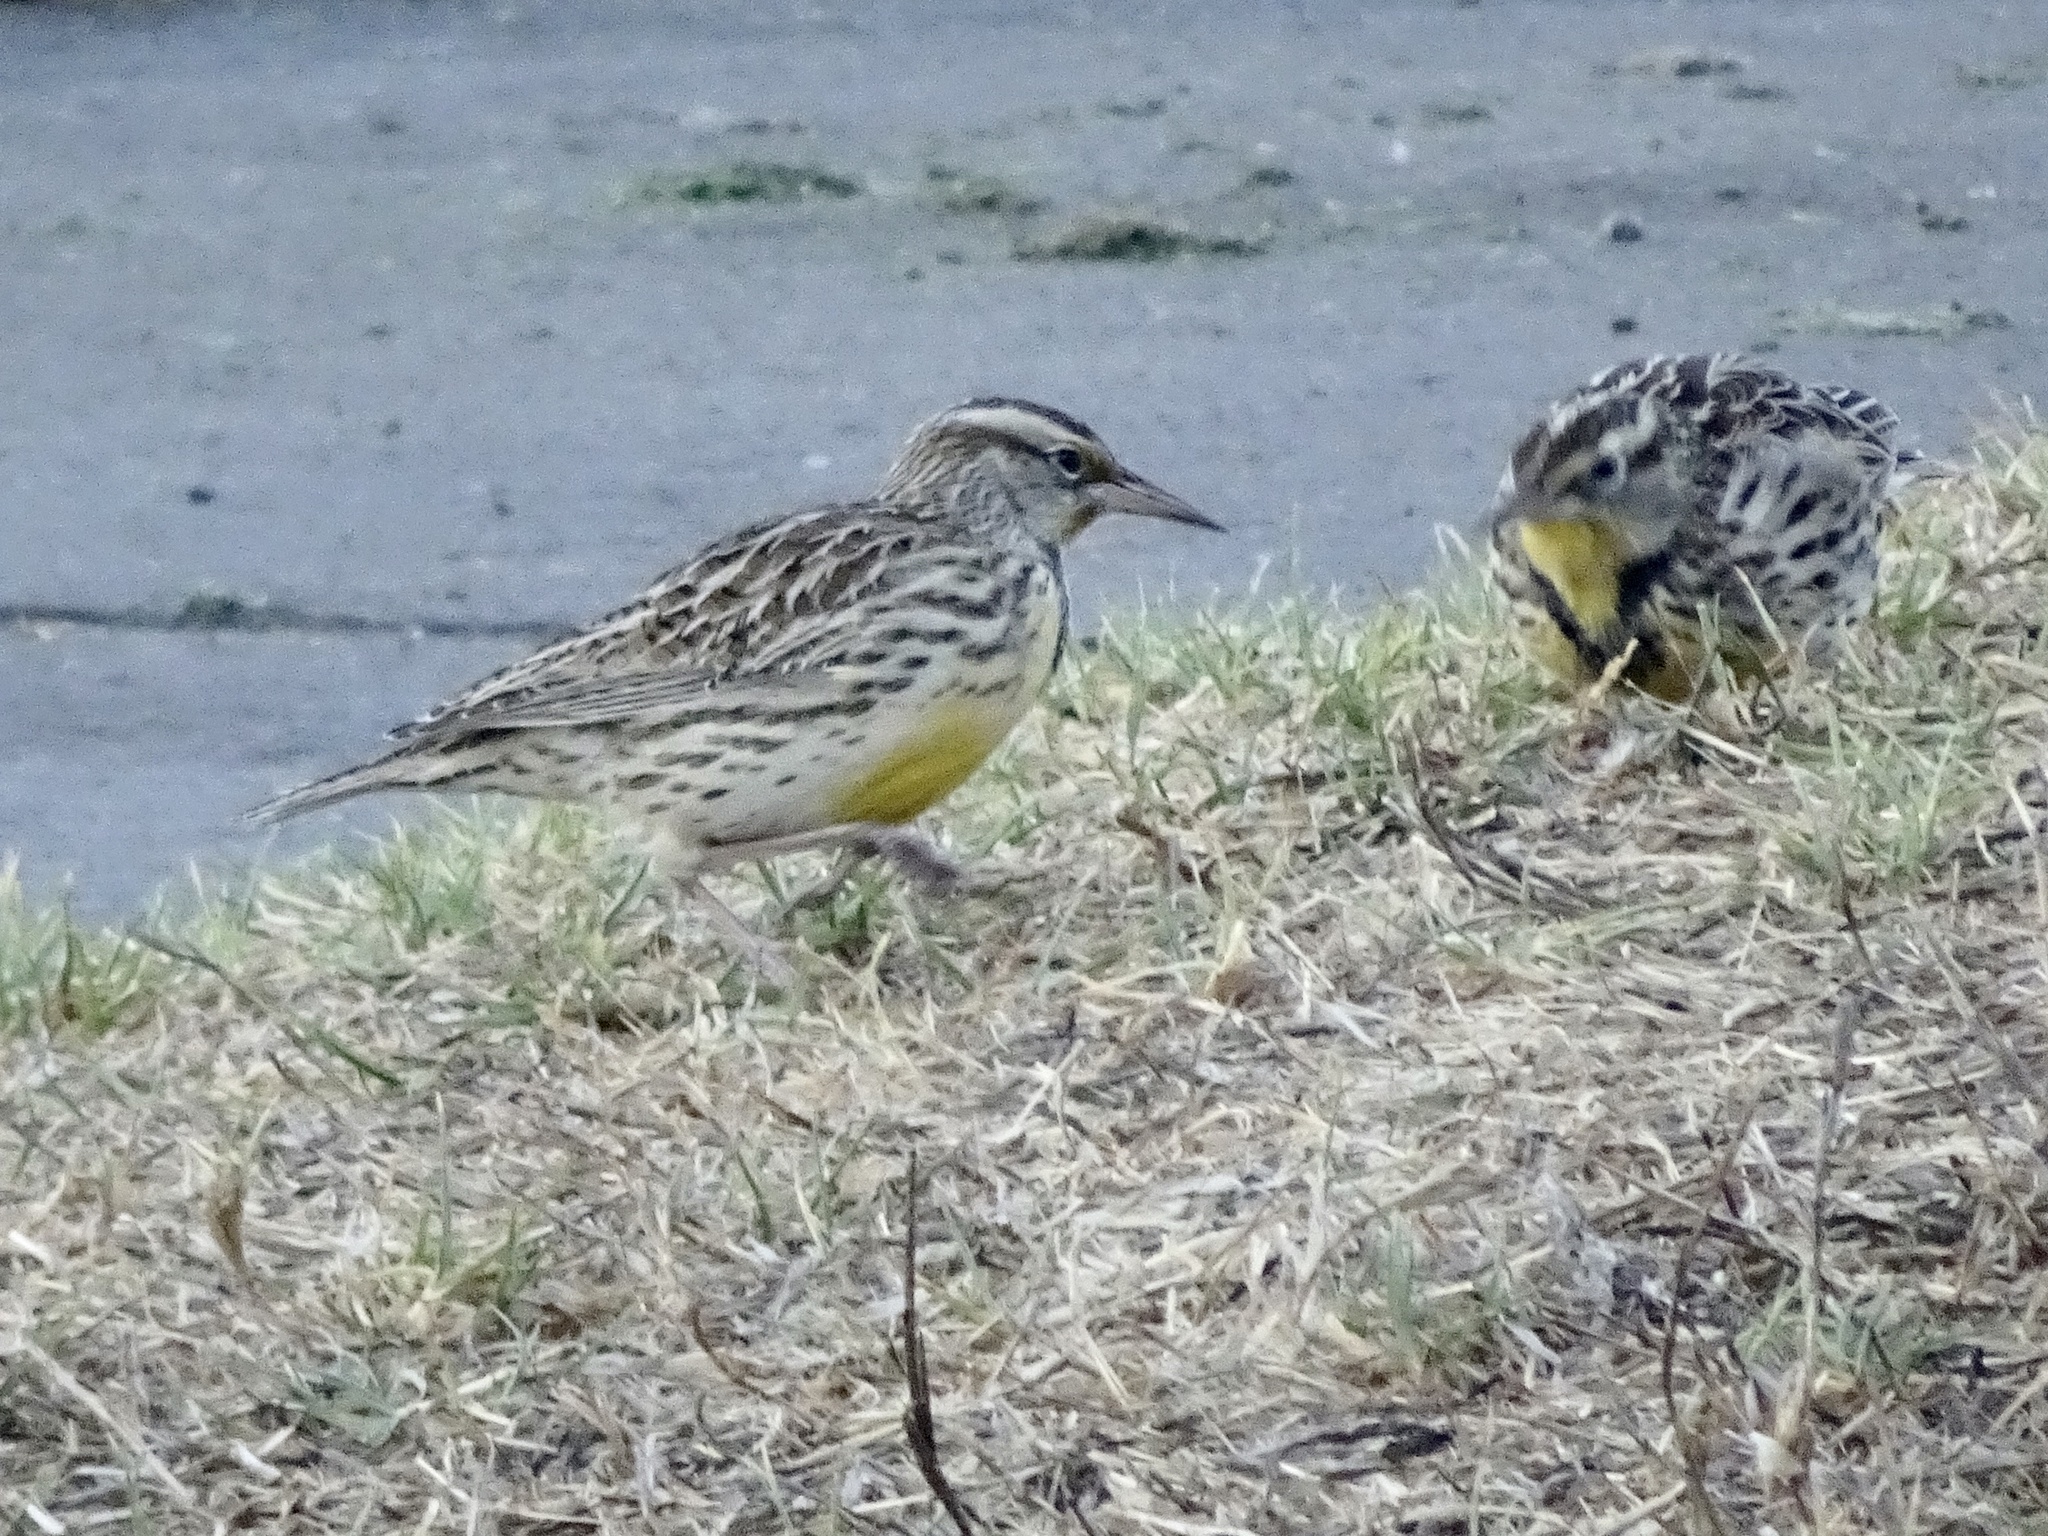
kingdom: Animalia
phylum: Chordata
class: Aves
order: Passeriformes
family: Icteridae
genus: Sturnella
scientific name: Sturnella neglecta
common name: Western meadowlark
